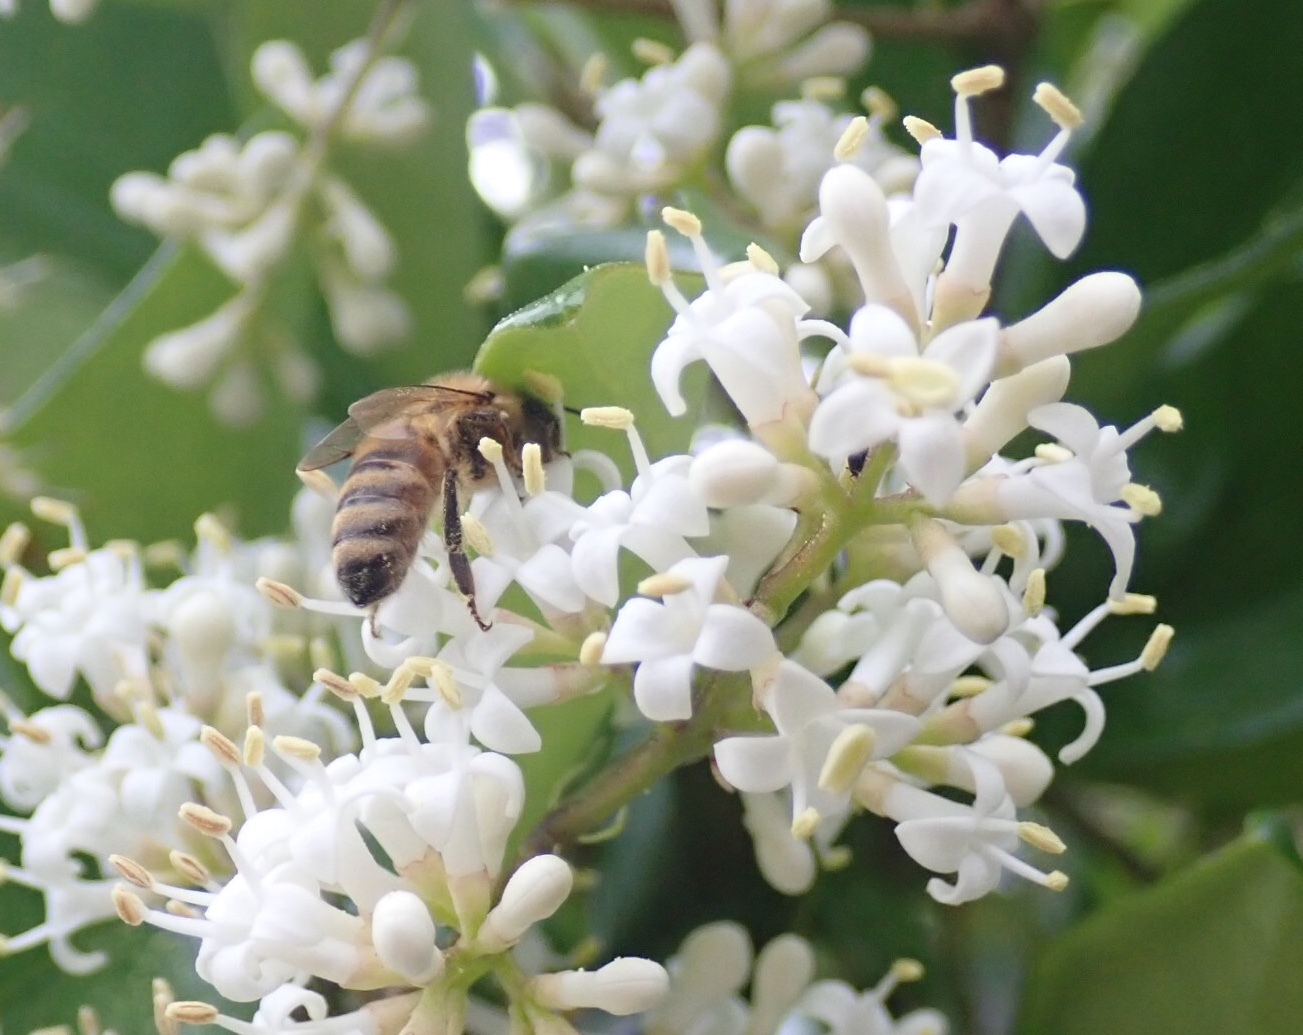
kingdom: Animalia
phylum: Arthropoda
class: Insecta
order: Hymenoptera
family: Apidae
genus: Apis
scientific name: Apis mellifera
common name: Honey bee
